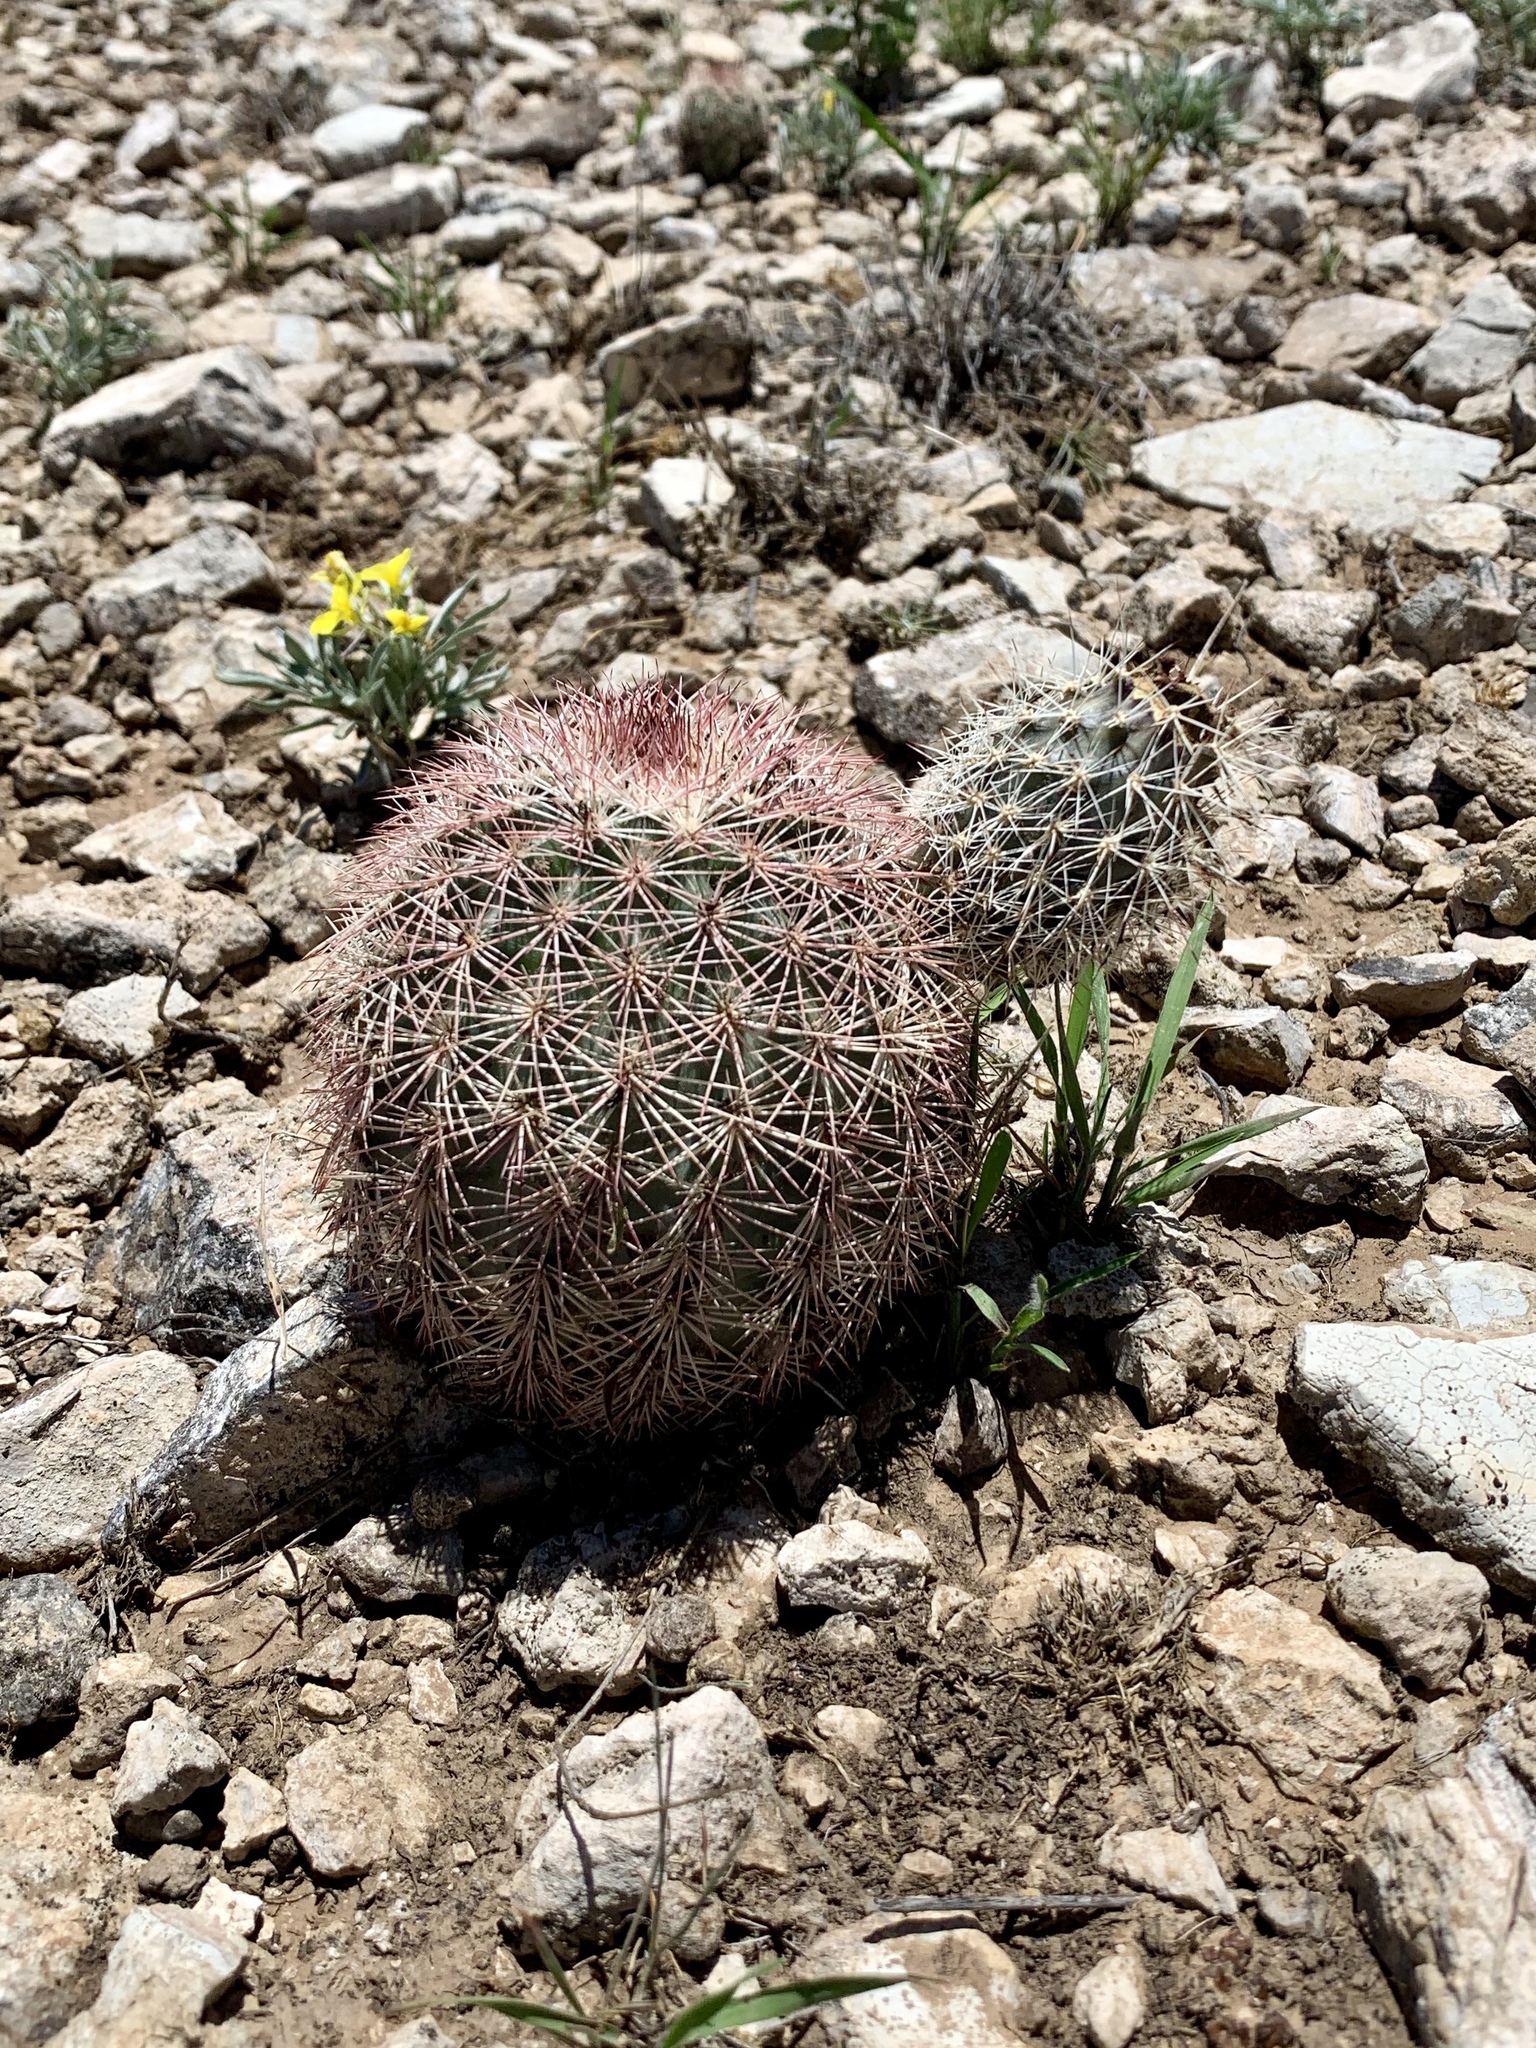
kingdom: Plantae
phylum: Tracheophyta
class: Magnoliopsida
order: Caryophyllales
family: Cactaceae
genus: Echinocereus
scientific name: Echinocereus dasyacanthus
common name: Spiny hedgehog cactus
